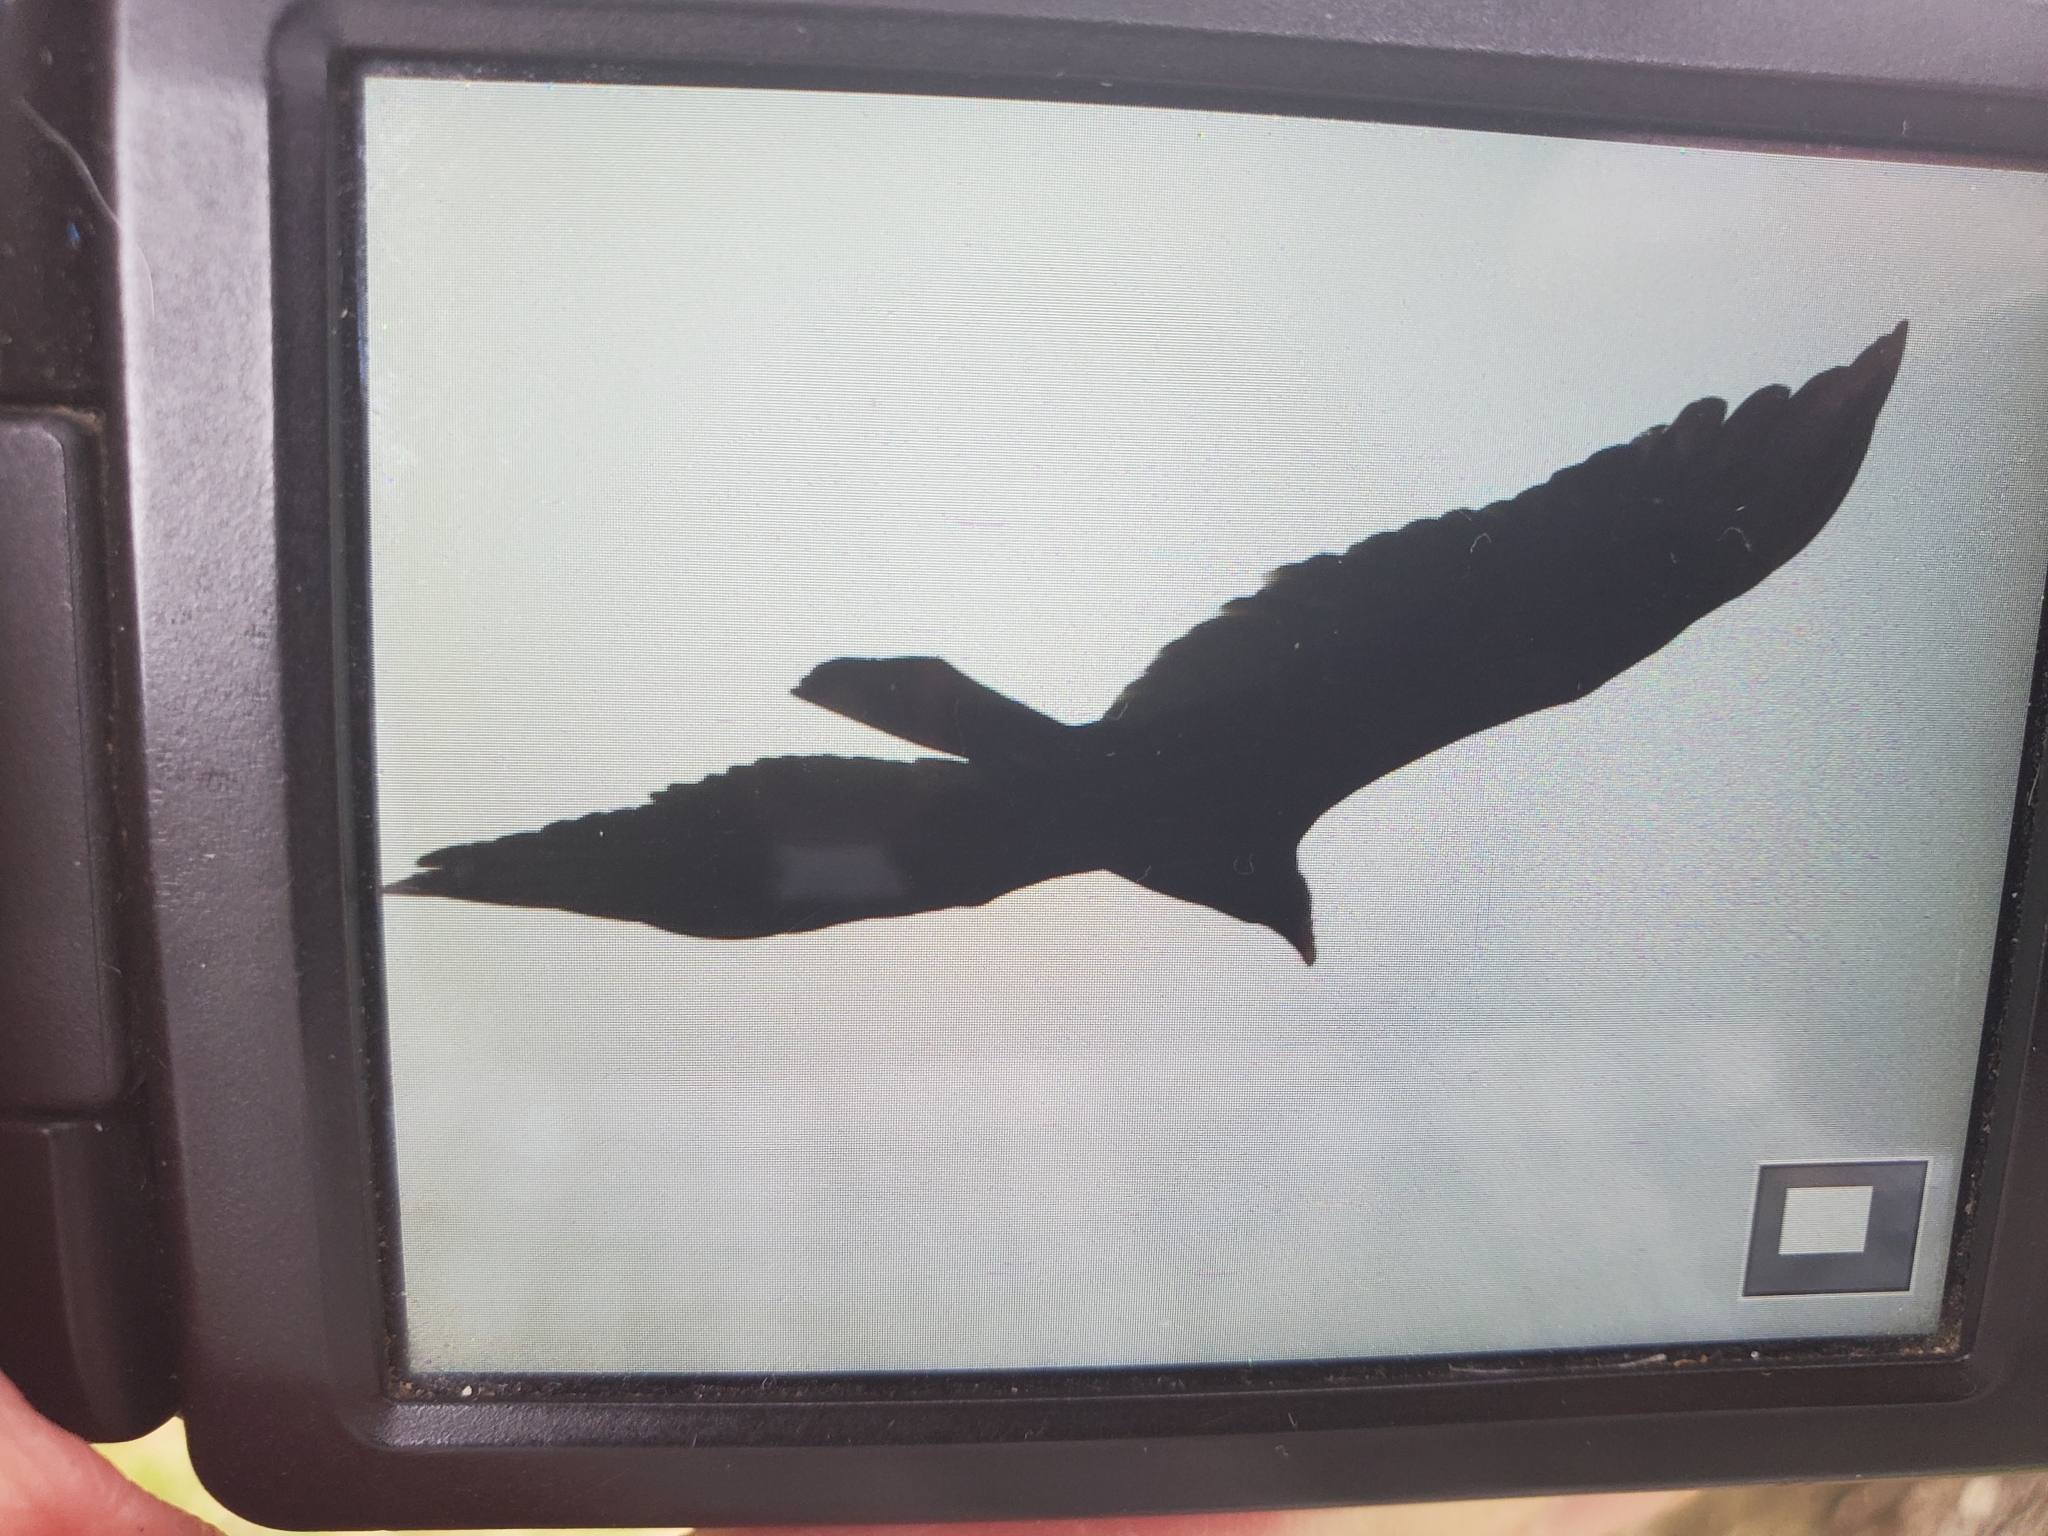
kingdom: Animalia
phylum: Chordata
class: Aves
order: Accipitriformes
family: Cathartidae
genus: Cathartes
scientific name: Cathartes aura
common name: Turkey vulture
